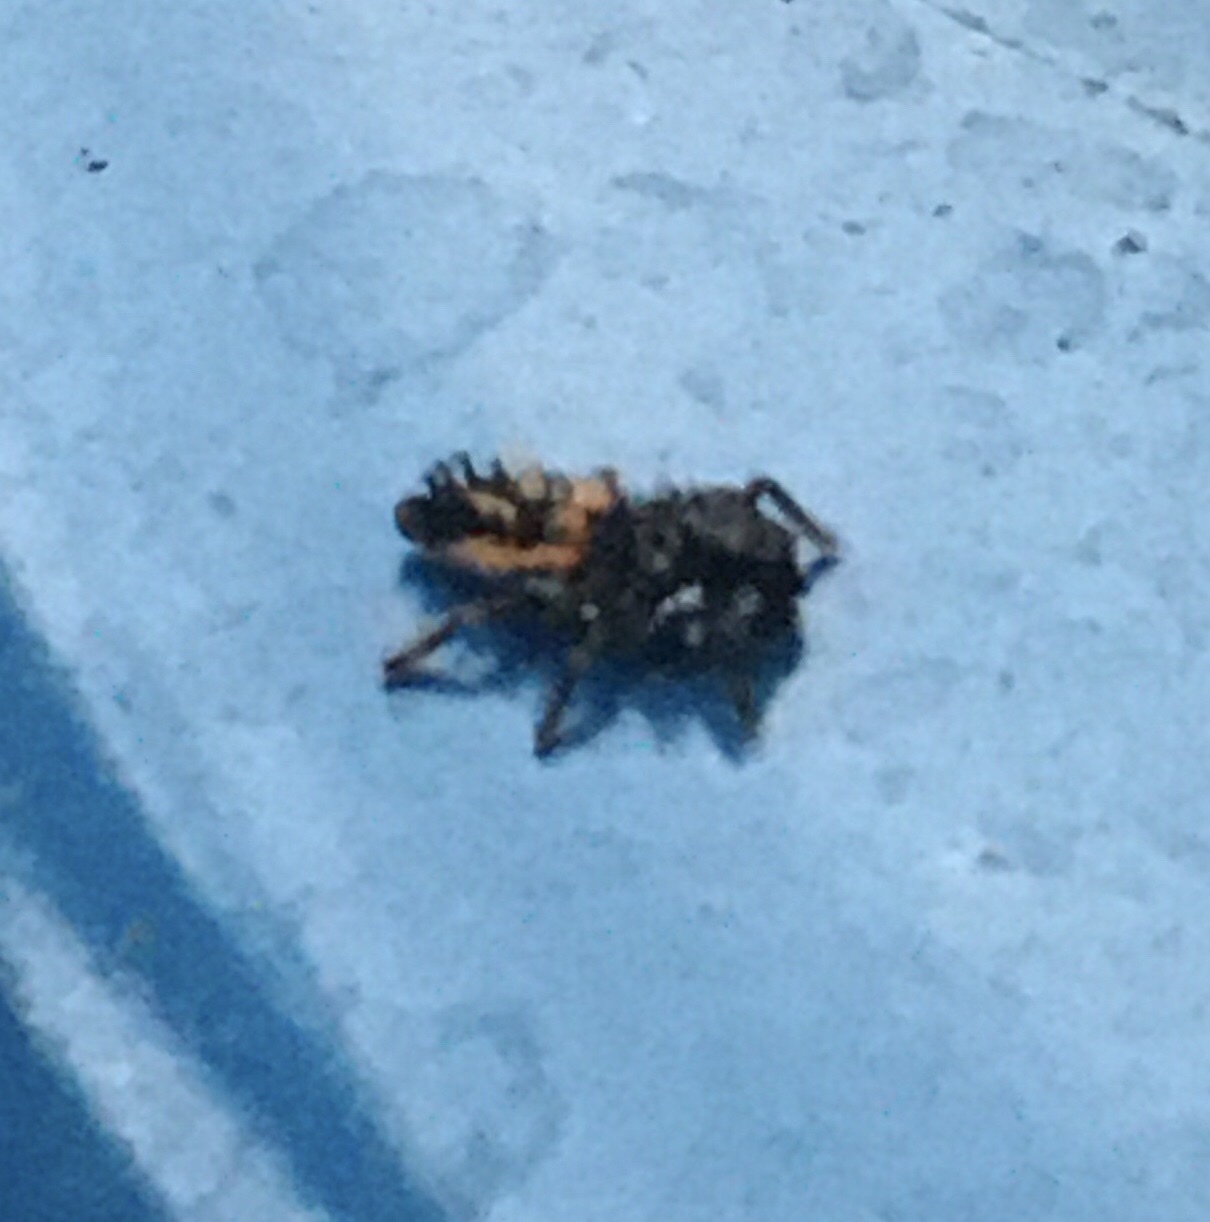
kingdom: Animalia
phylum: Arthropoda
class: Insecta
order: Coleoptera
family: Coccinellidae
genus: Harmonia
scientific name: Harmonia axyridis
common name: Harlequin ladybird
